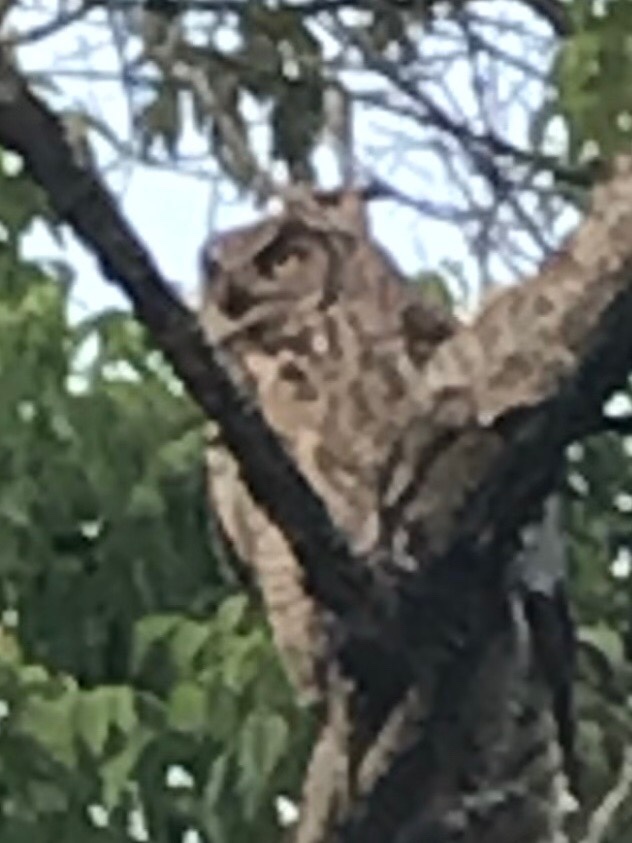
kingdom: Animalia
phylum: Chordata
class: Aves
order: Strigiformes
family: Strigidae
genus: Bubo
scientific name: Bubo virginianus
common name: Great horned owl
